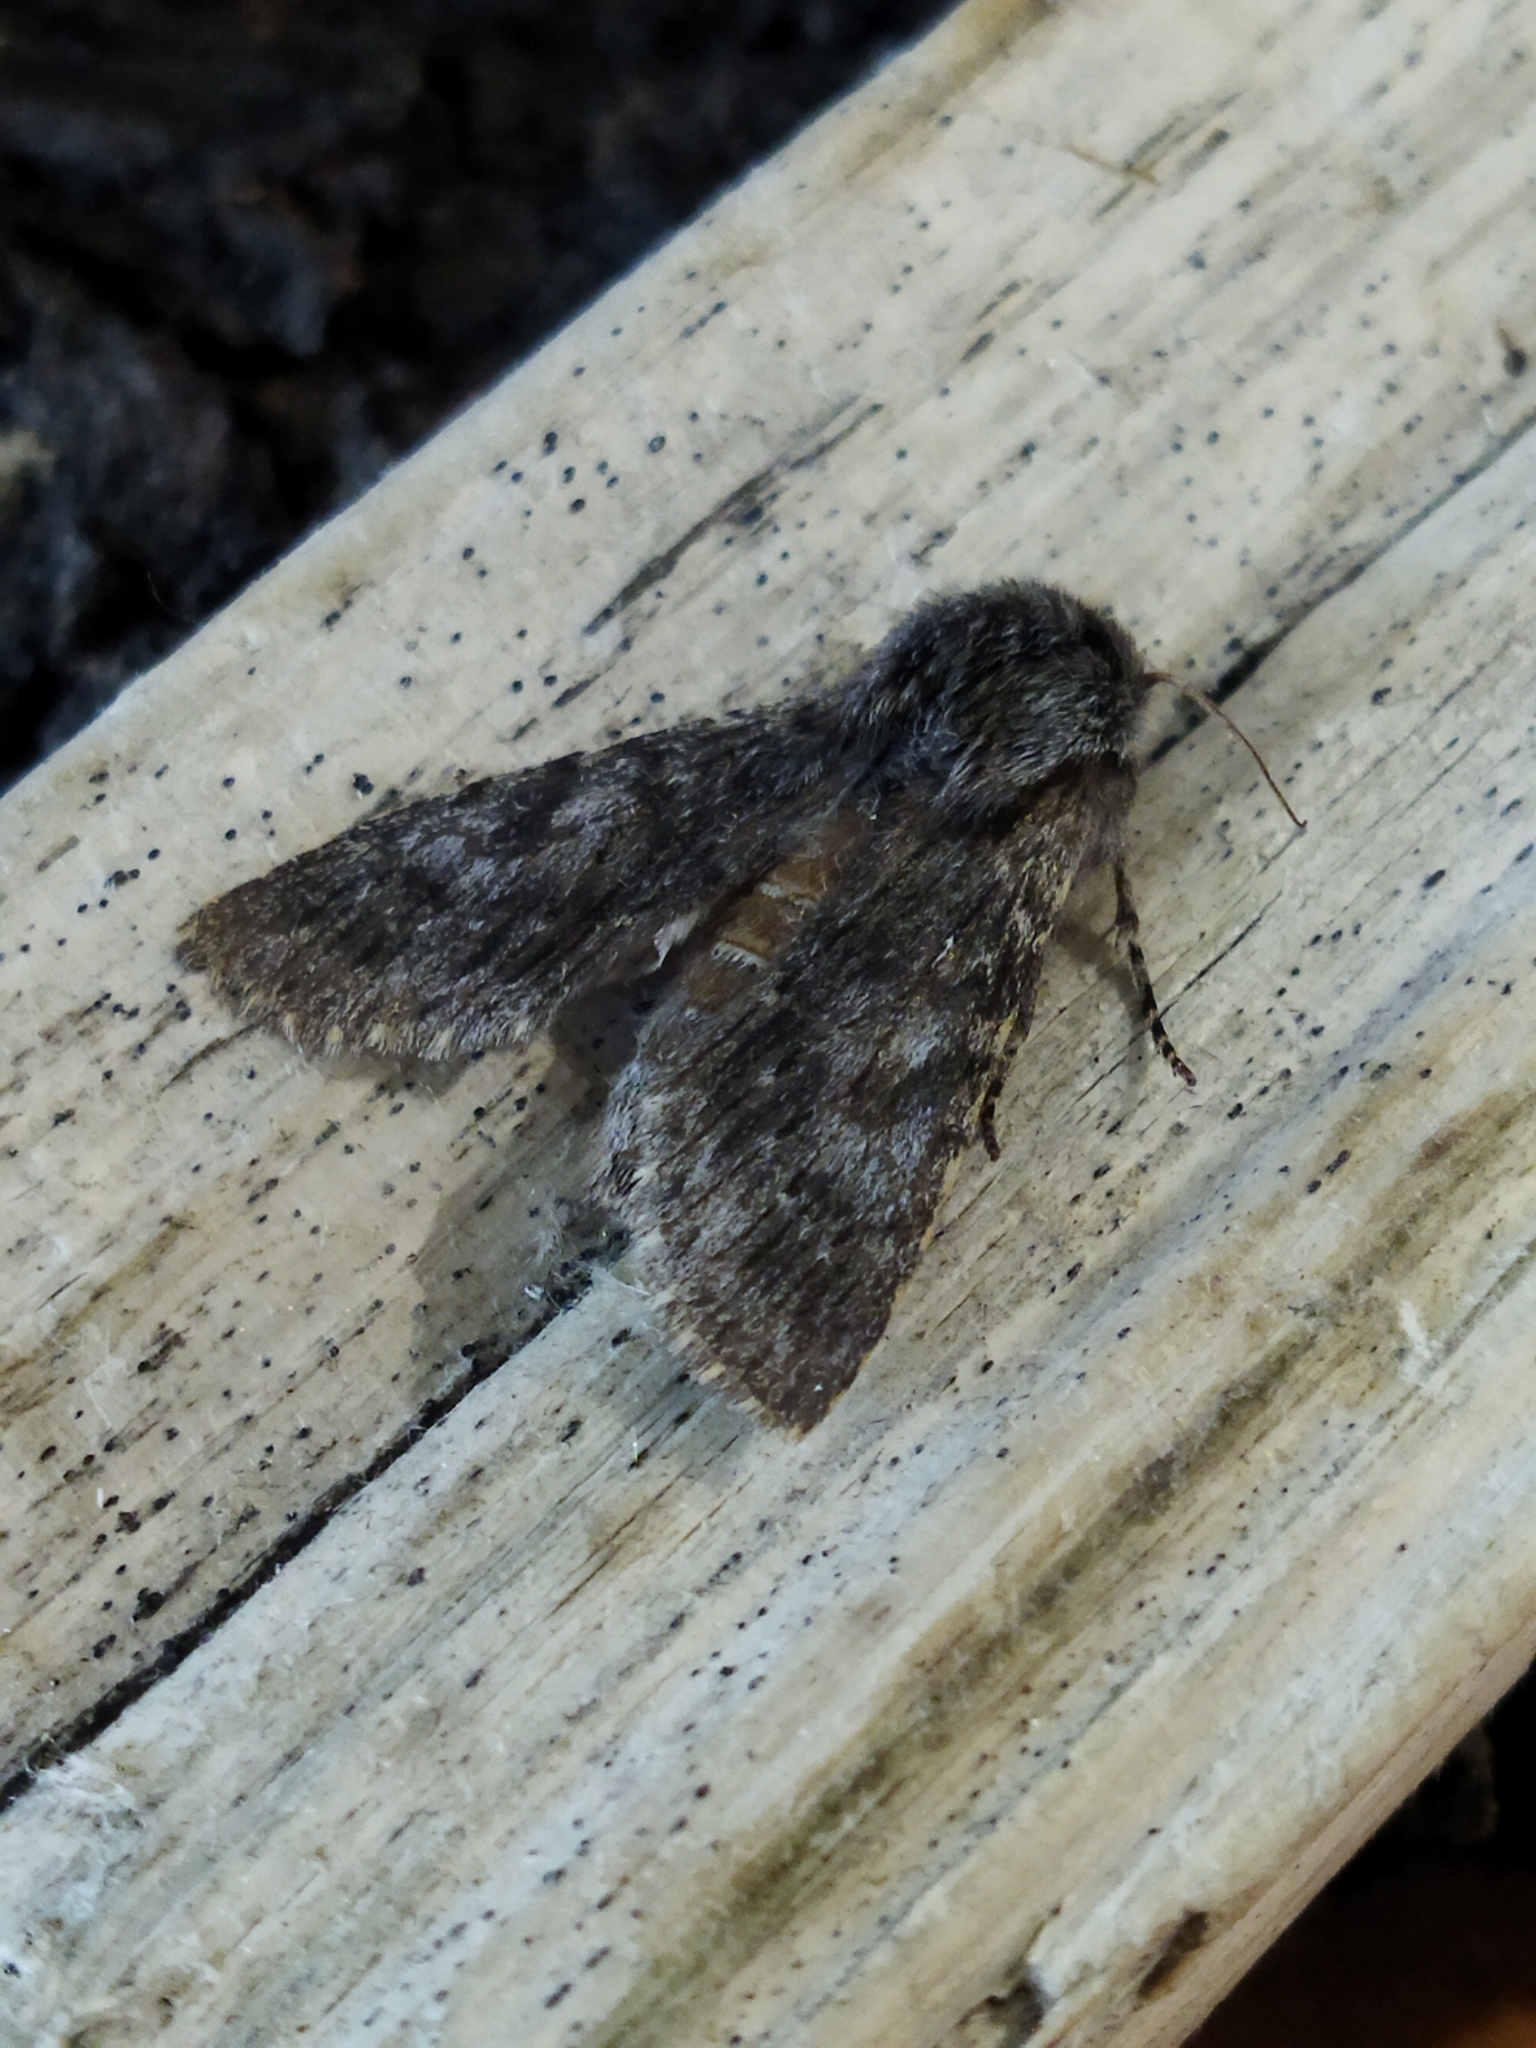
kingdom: Animalia
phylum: Arthropoda
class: Insecta
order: Lepidoptera
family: Notodontidae
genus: Dicranura
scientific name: Dicranura ulmi
